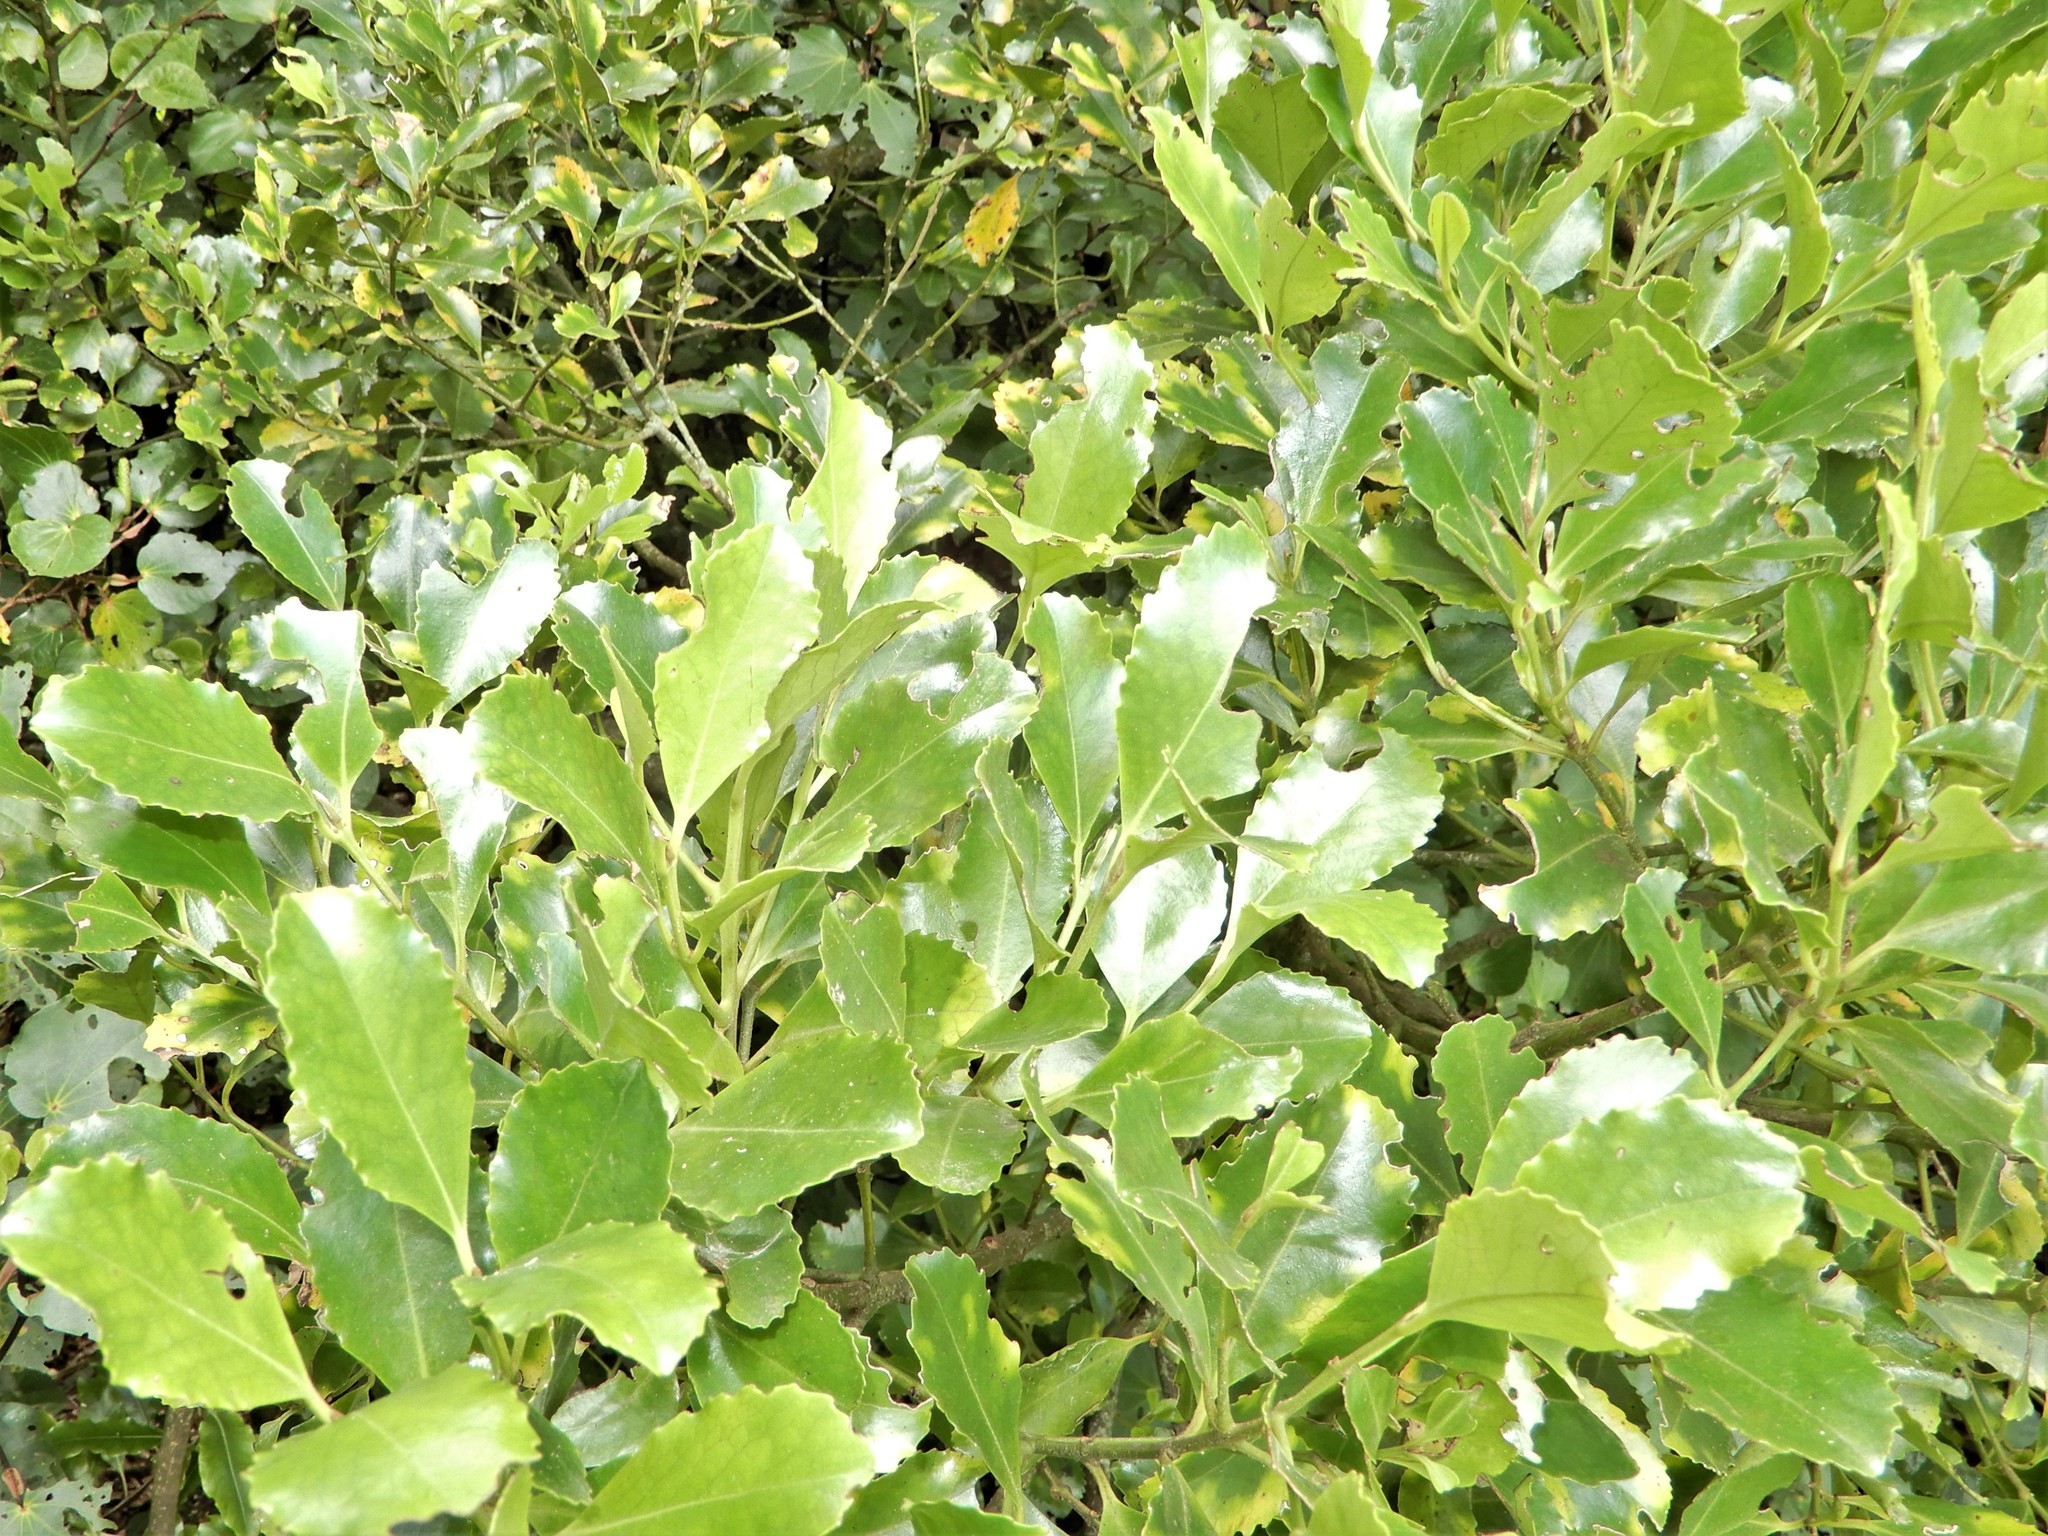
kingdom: Plantae
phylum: Tracheophyta
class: Magnoliopsida
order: Laurales
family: Atherospermataceae
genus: Laurelia
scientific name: Laurelia novae-zelandiae
